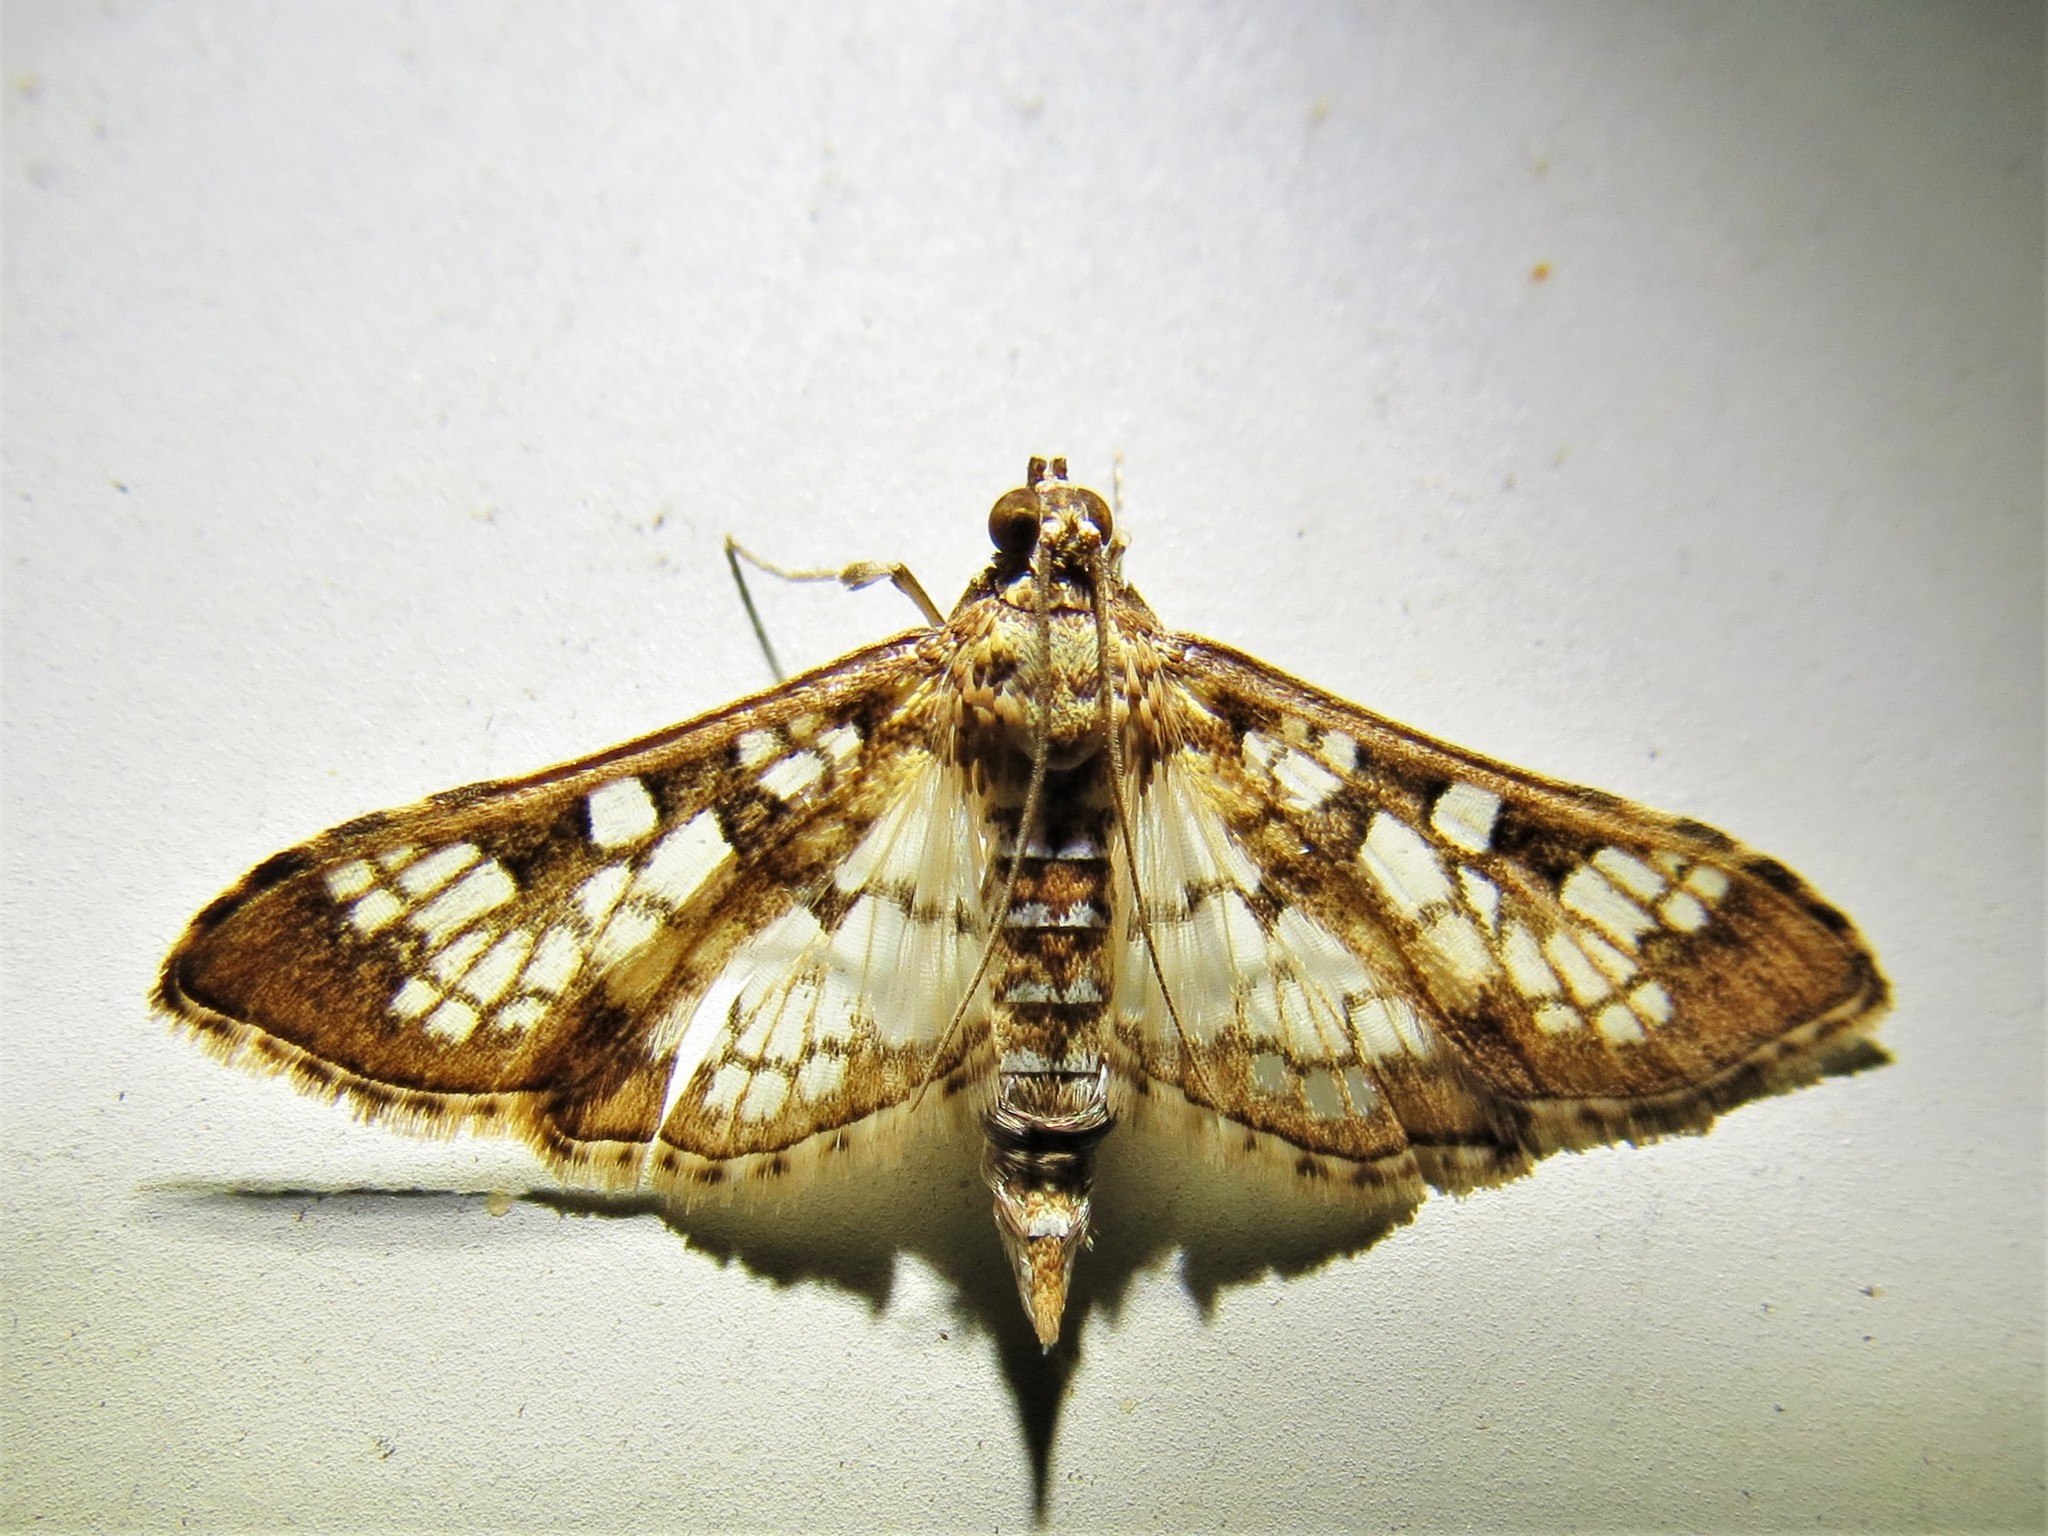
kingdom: Animalia
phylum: Arthropoda
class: Insecta
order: Lepidoptera
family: Crambidae
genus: Samea
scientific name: Samea ecclesialis
